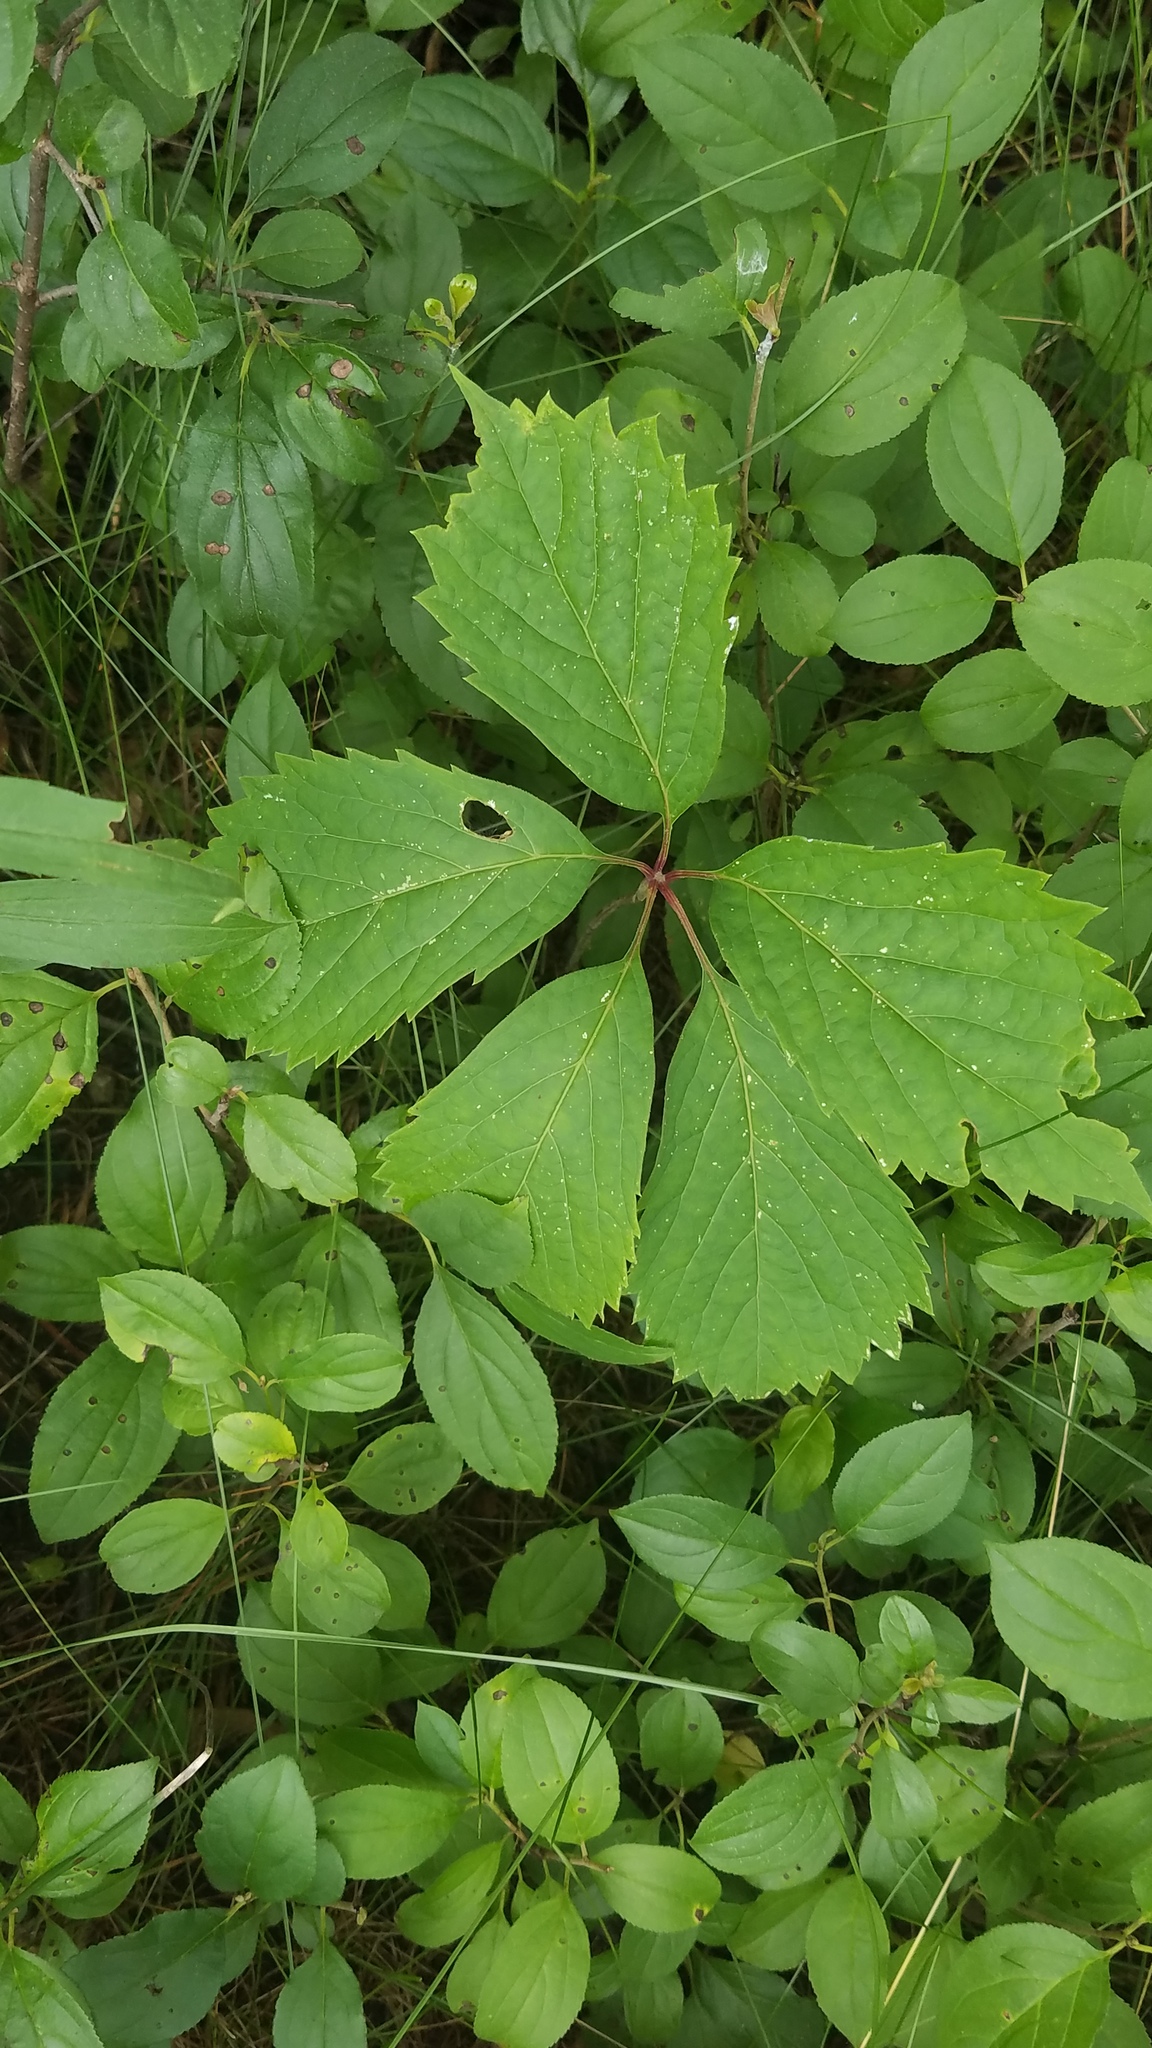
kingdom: Plantae
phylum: Tracheophyta
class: Magnoliopsida
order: Rosales
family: Rhamnaceae
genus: Rhamnus
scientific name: Rhamnus cathartica
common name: Common buckthorn
